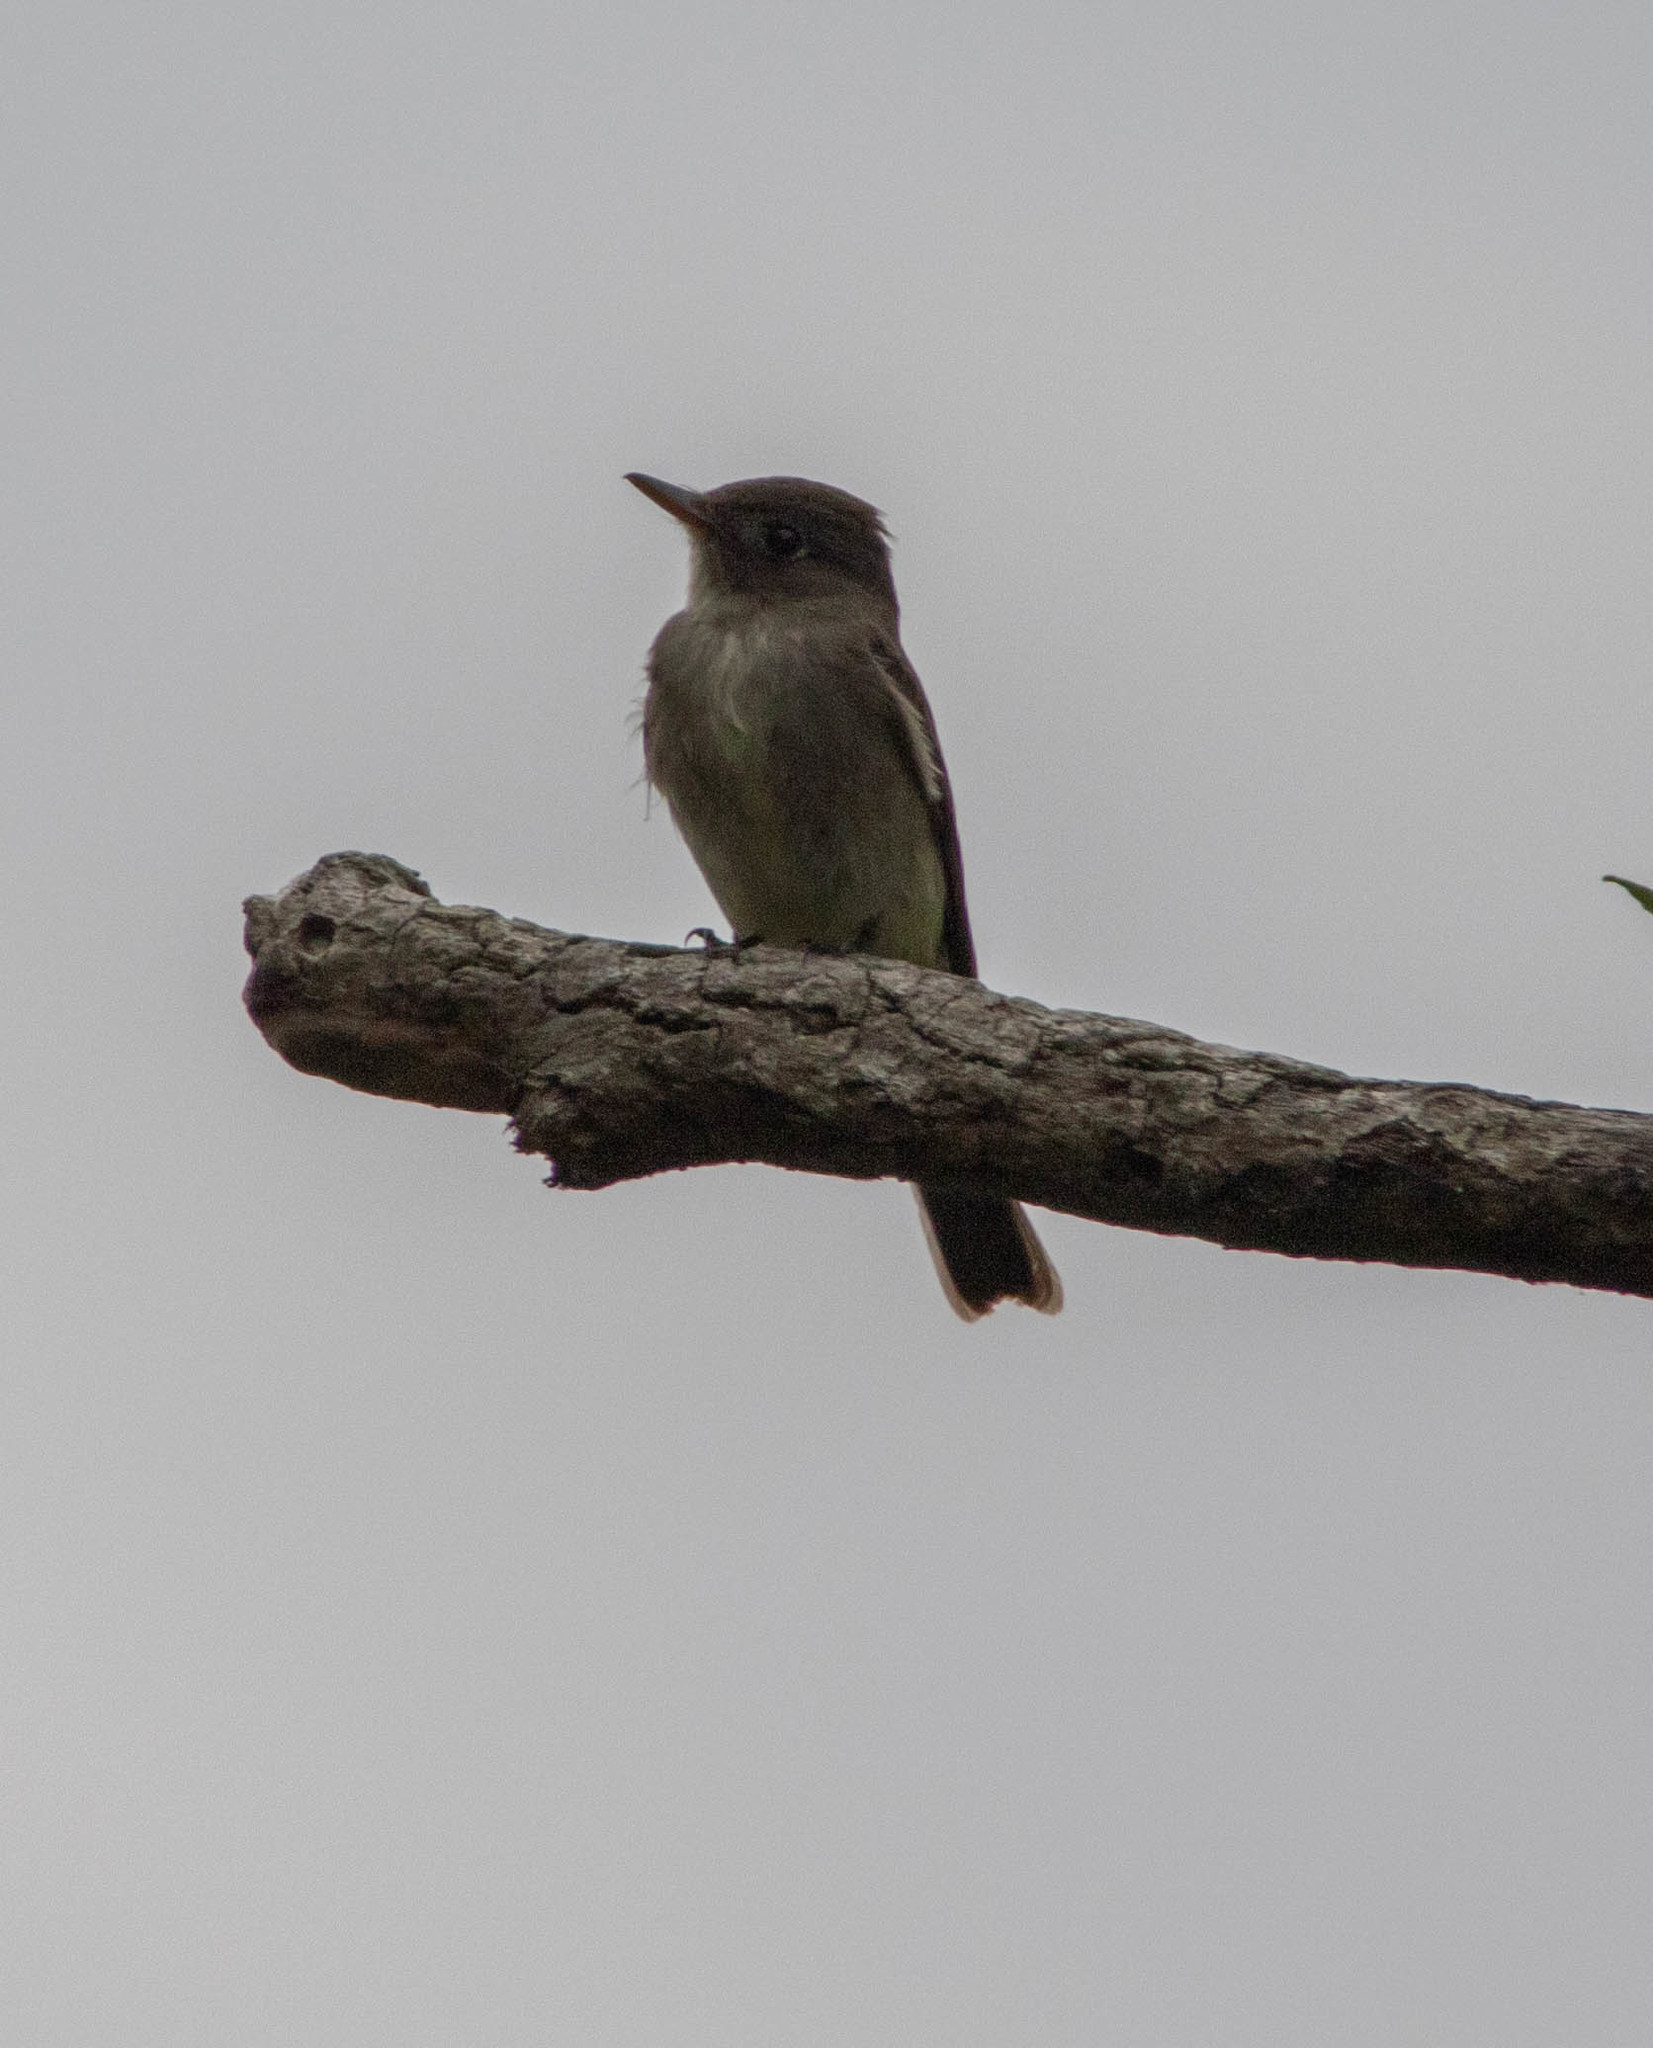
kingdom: Animalia
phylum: Chordata
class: Aves
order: Passeriformes
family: Tyrannidae
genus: Contopus
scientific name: Contopus virens
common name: Eastern wood-pewee
